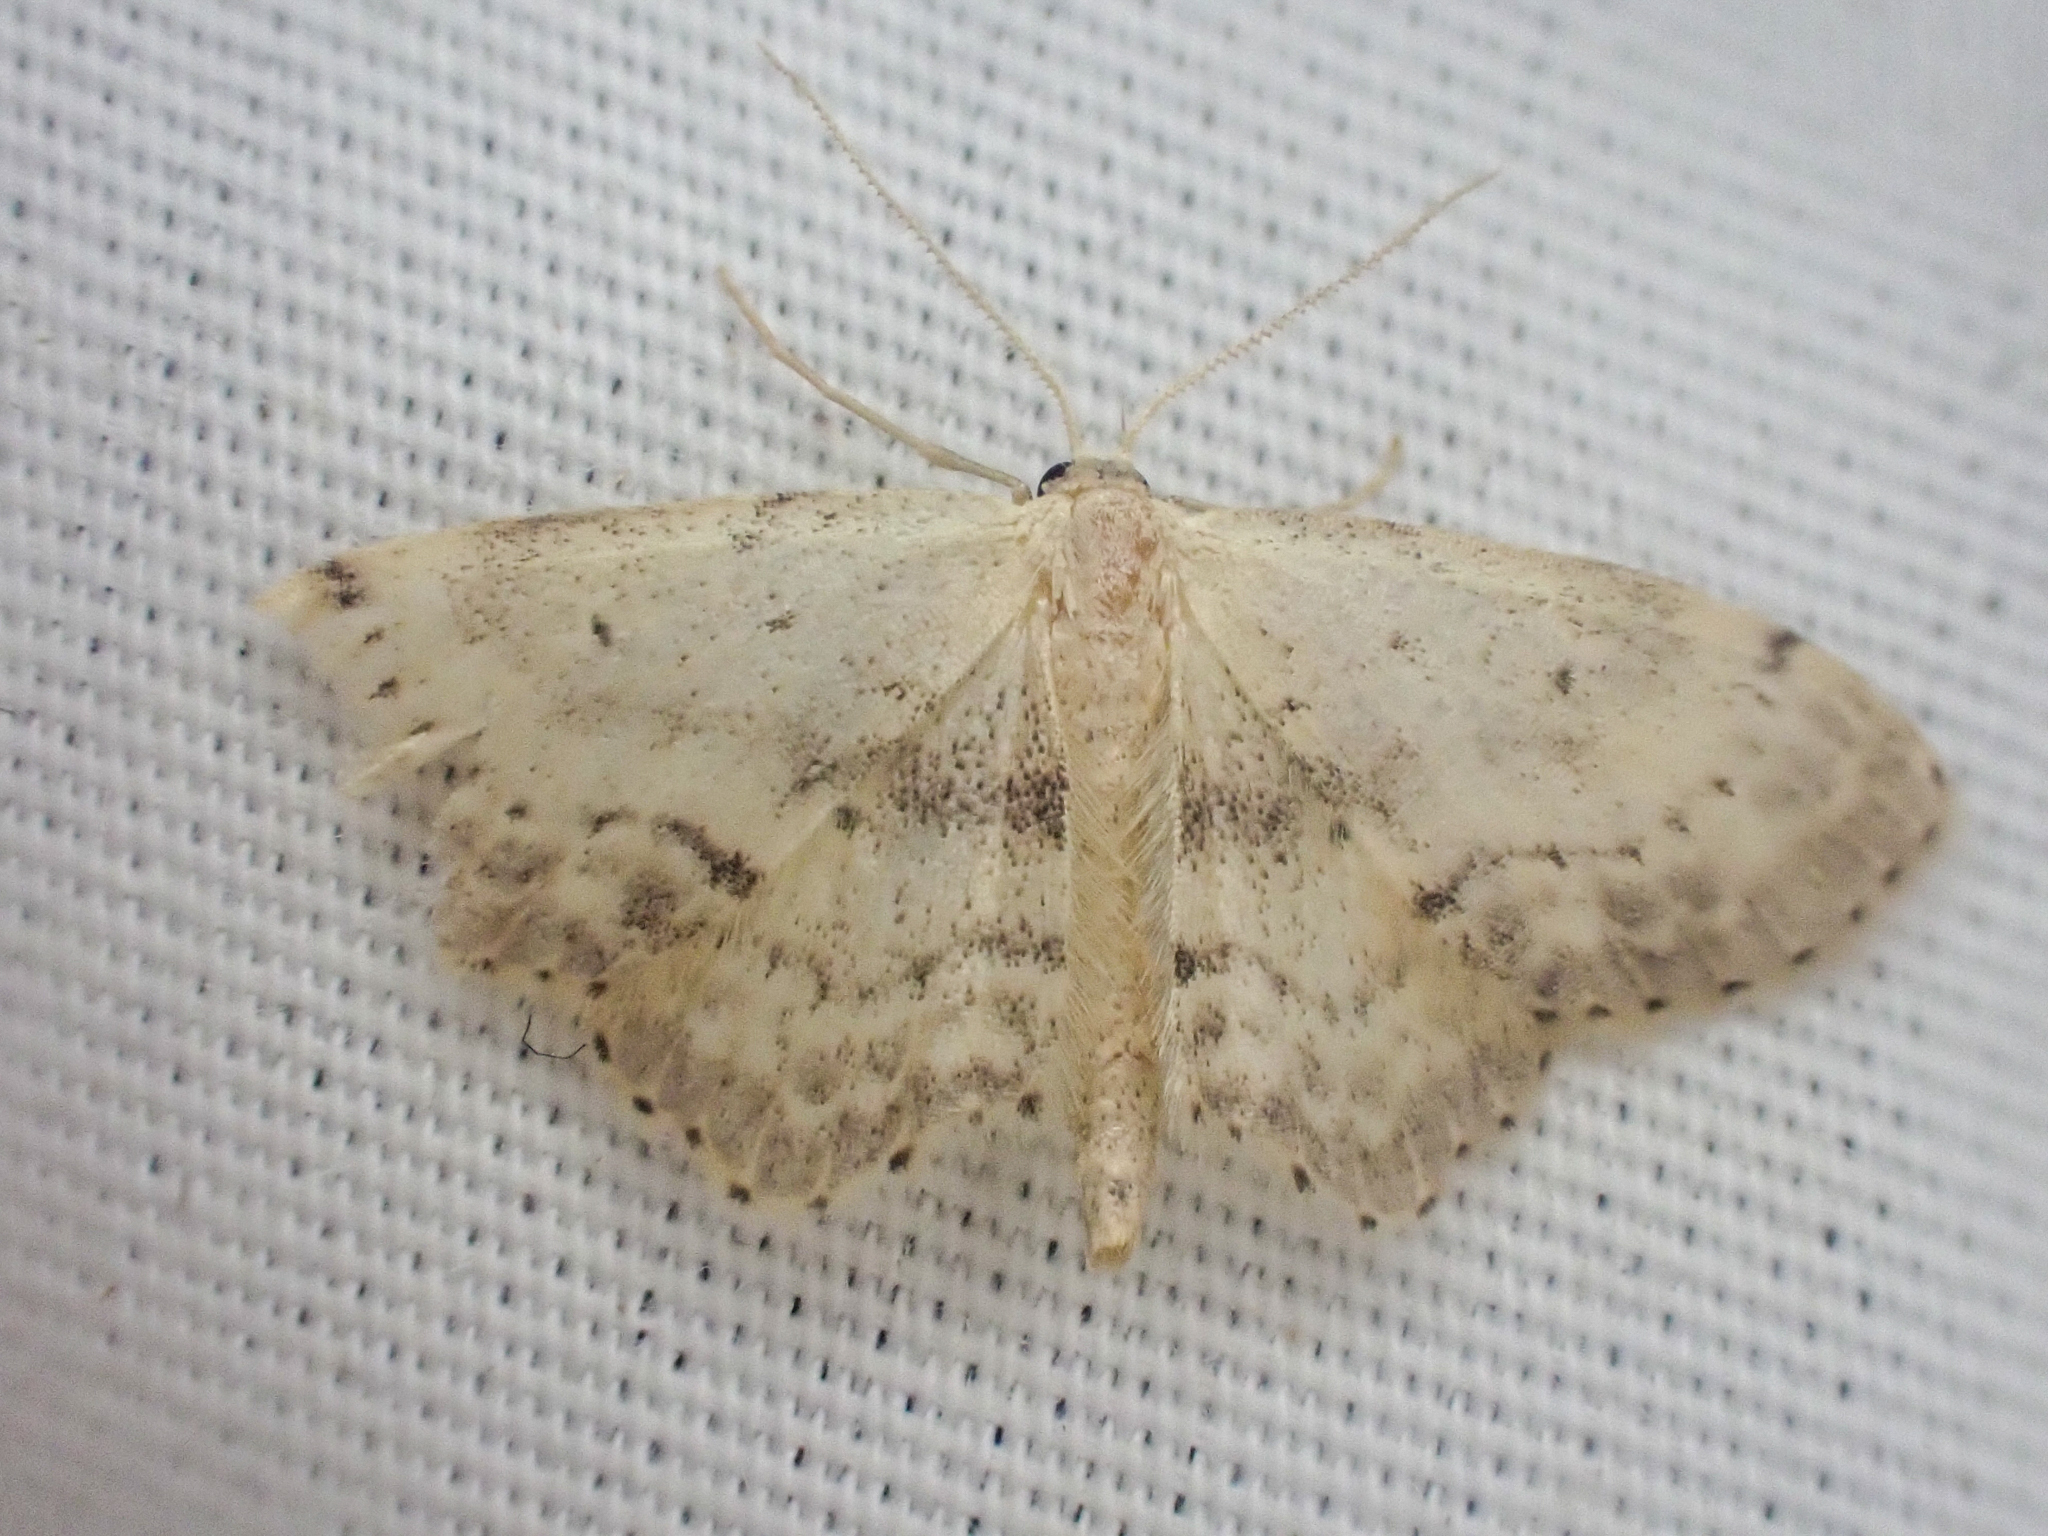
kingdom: Animalia
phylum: Arthropoda
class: Insecta
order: Lepidoptera
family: Geometridae
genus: Idaea
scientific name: Idaea dimidiata
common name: Single-dotted wave
